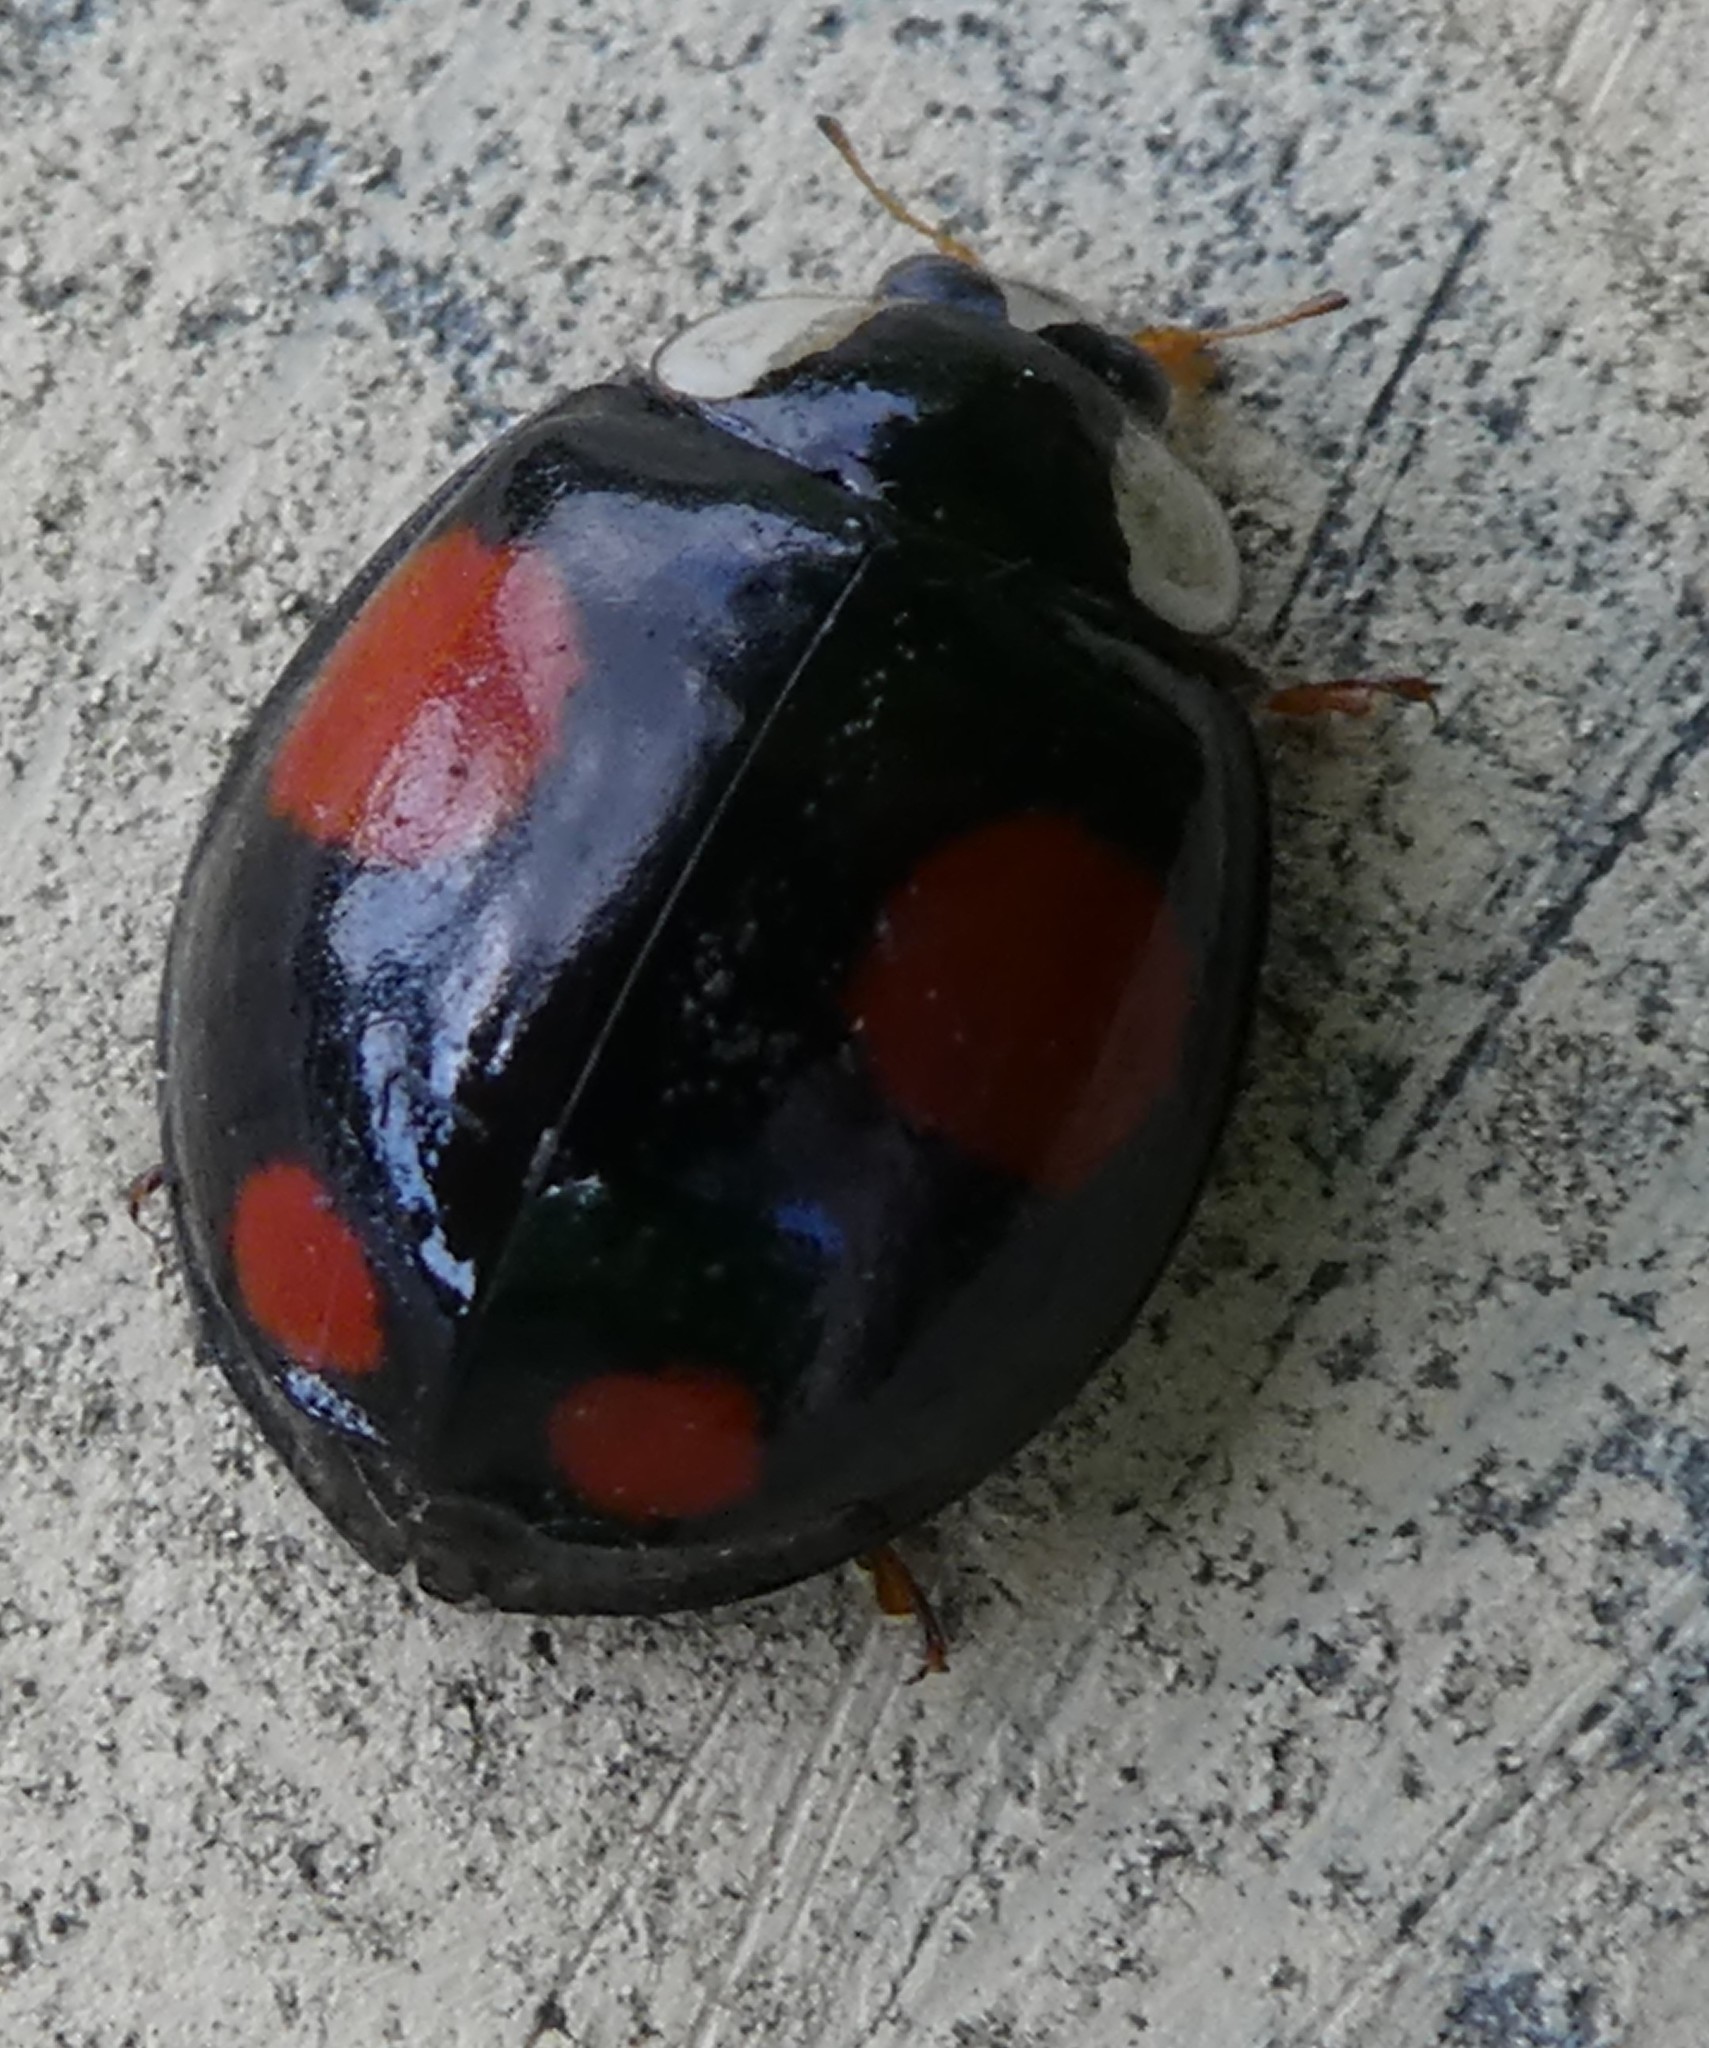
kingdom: Animalia
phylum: Arthropoda
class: Insecta
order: Coleoptera
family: Coccinellidae
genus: Harmonia
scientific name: Harmonia axyridis
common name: Harlequin ladybird
